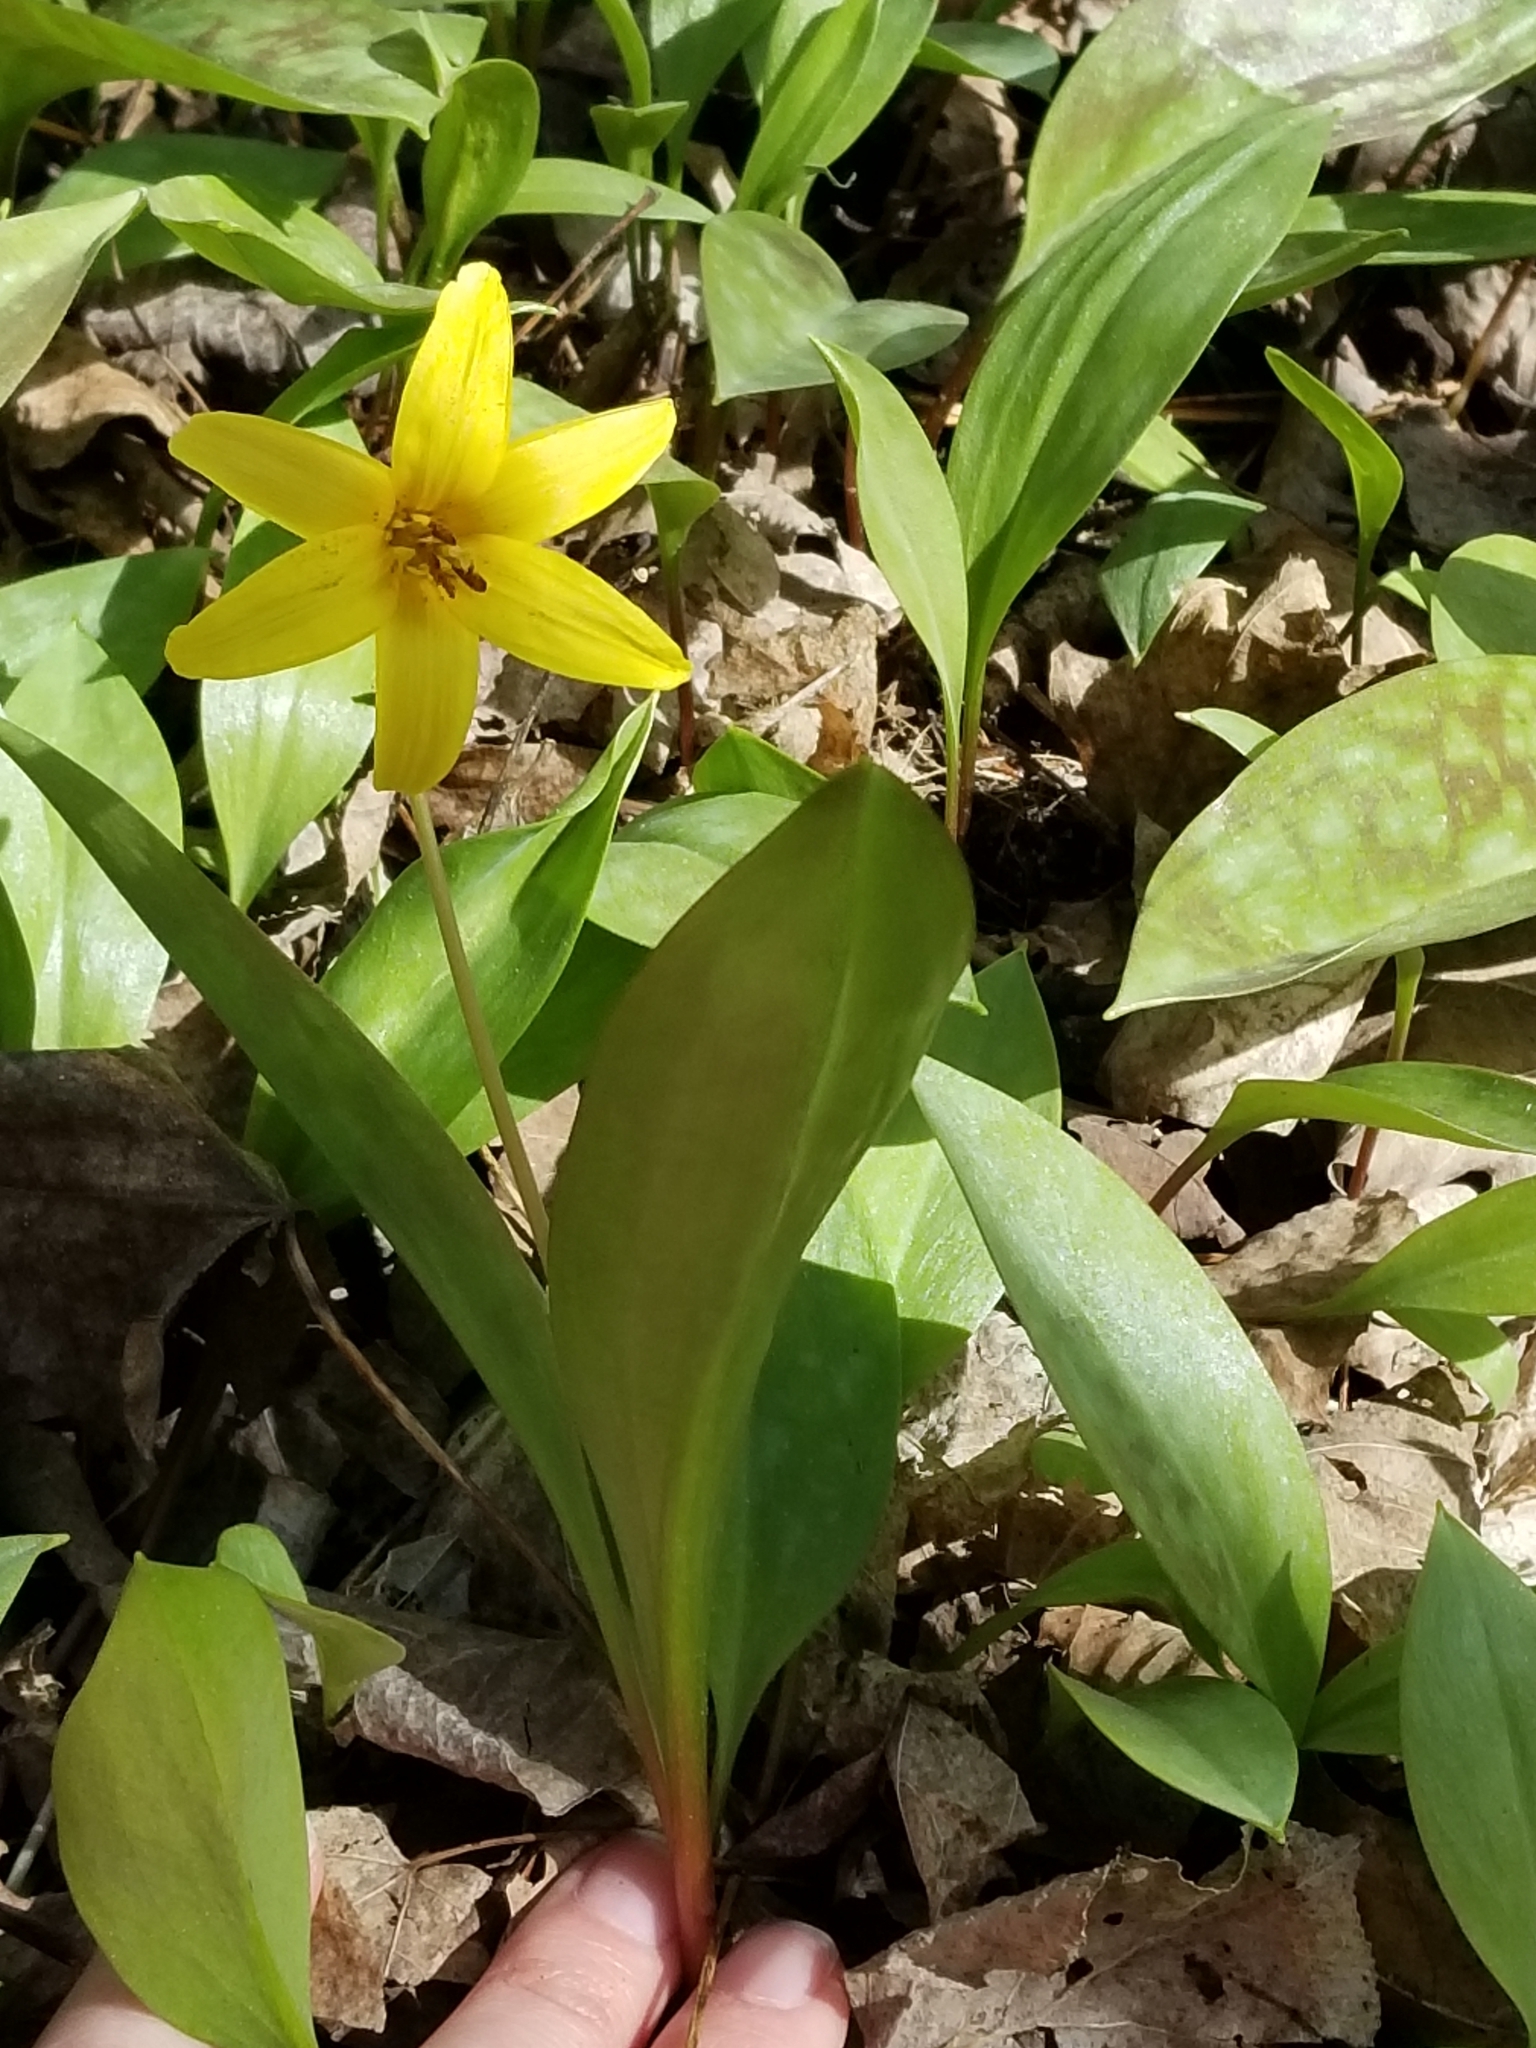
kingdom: Plantae
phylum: Tracheophyta
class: Liliopsida
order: Liliales
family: Liliaceae
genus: Erythronium
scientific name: Erythronium americanum
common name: Yellow adder's-tongue
